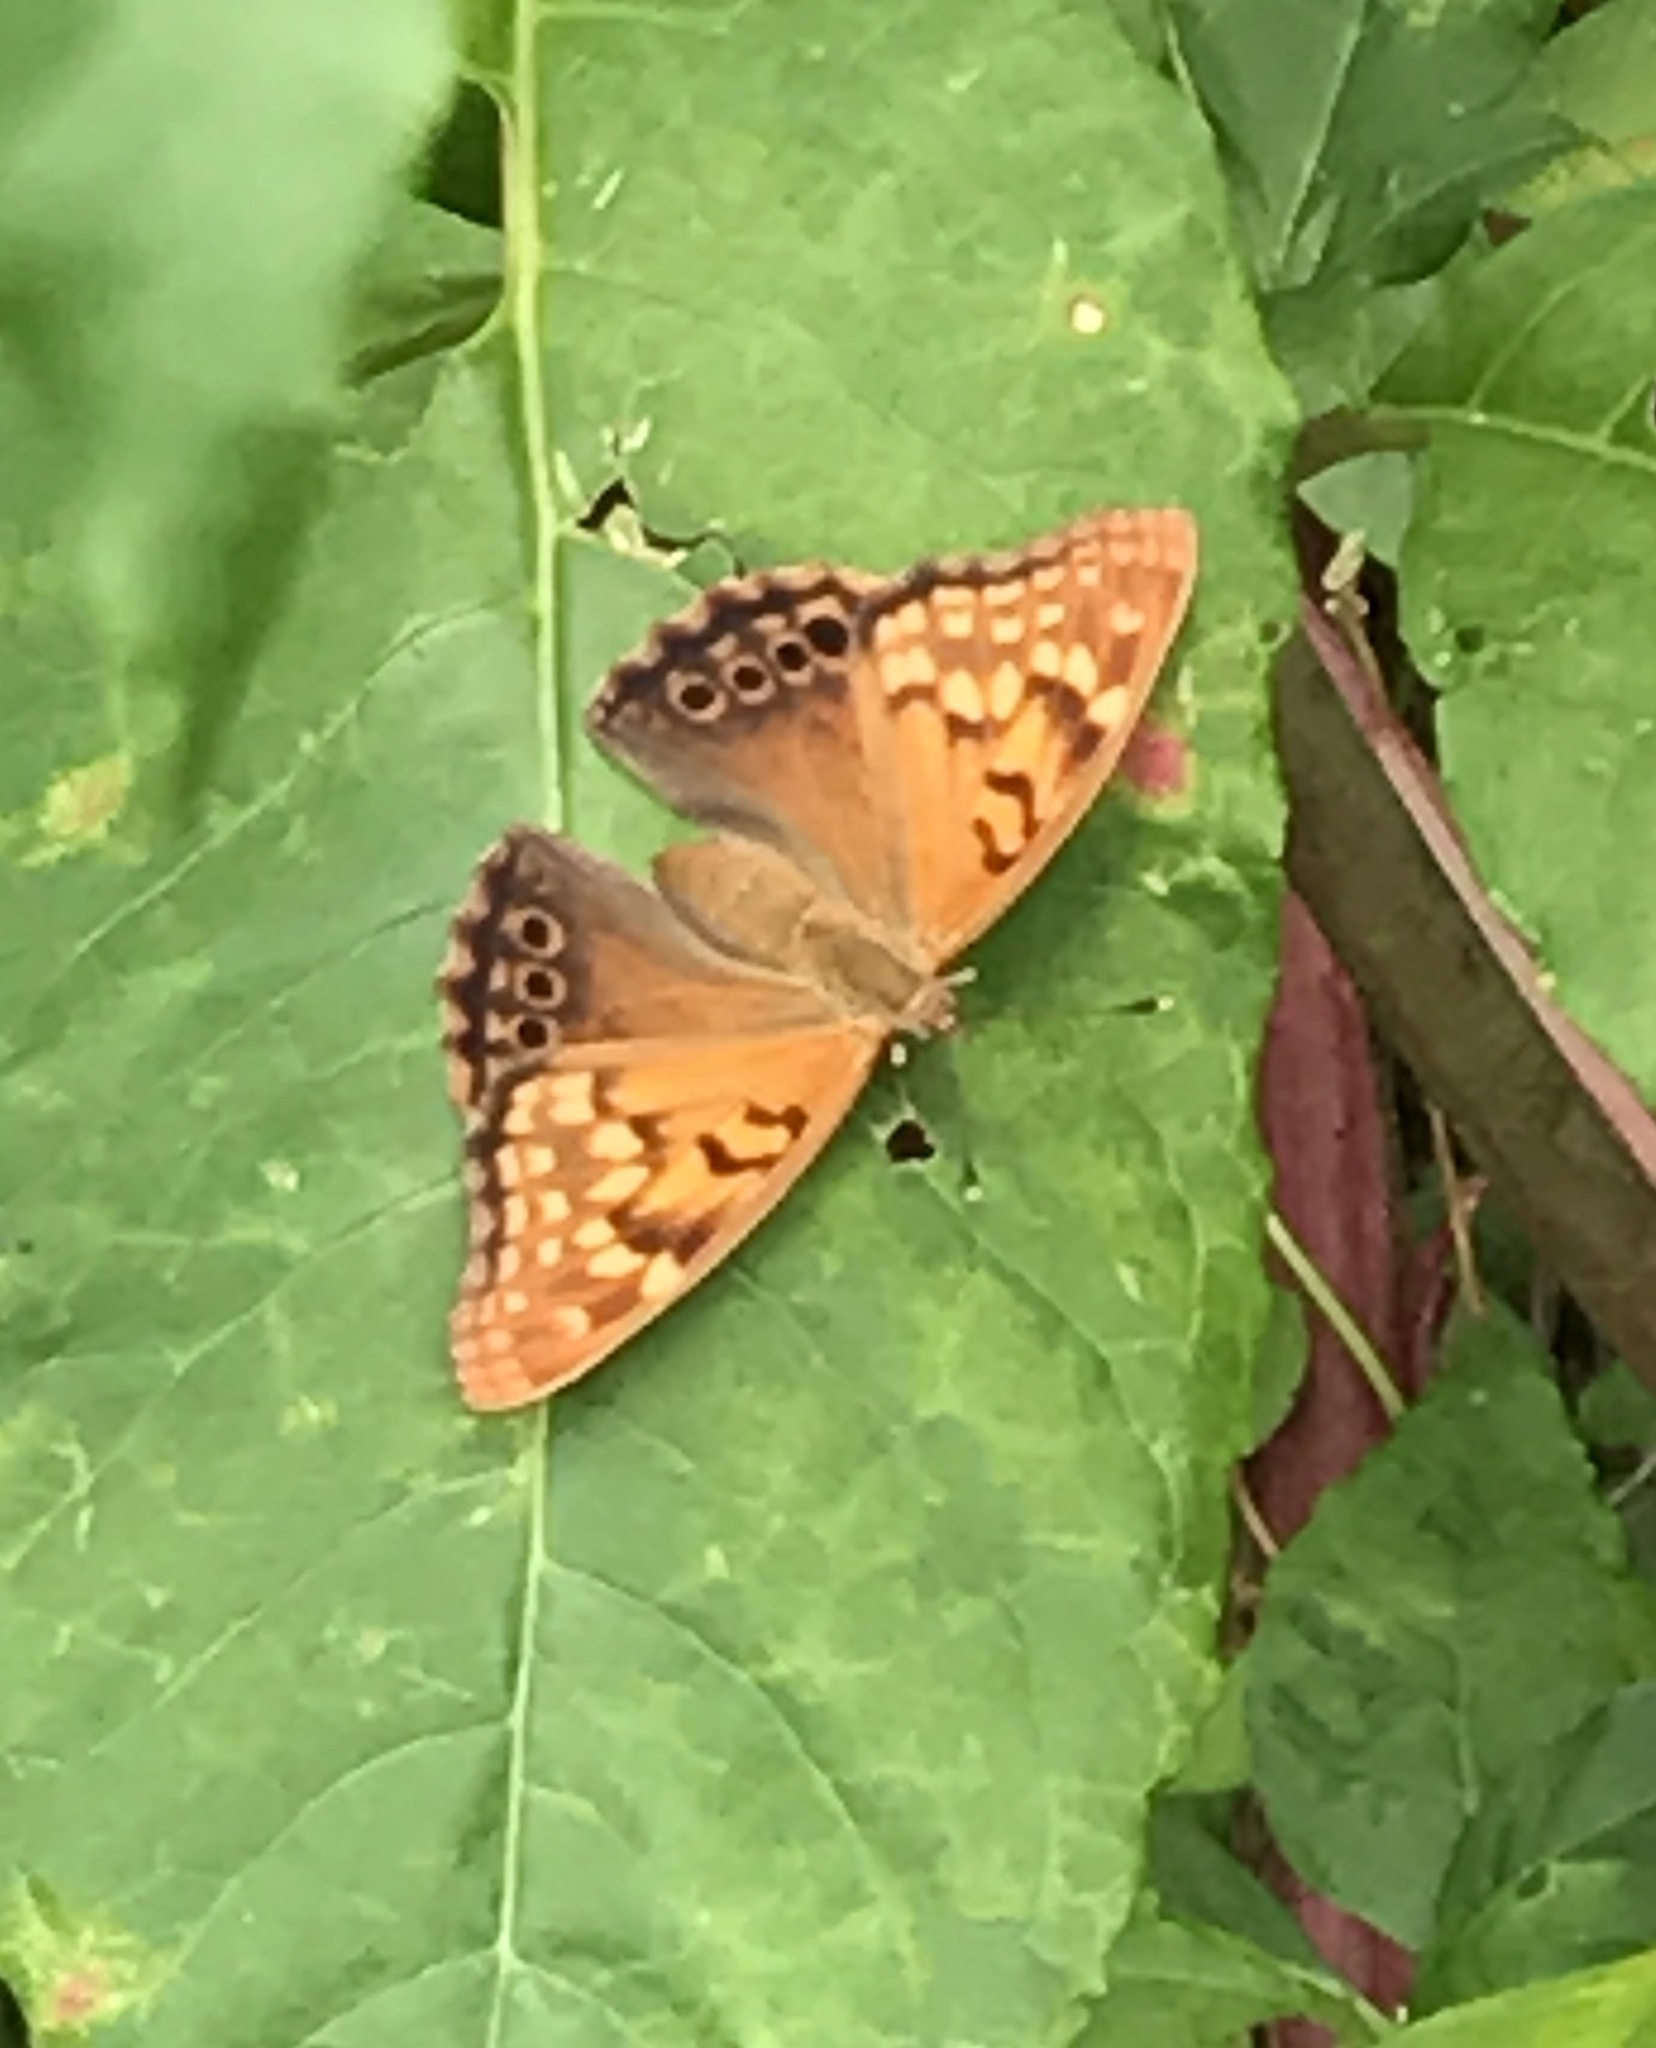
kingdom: Animalia
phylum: Arthropoda
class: Insecta
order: Lepidoptera
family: Nymphalidae
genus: Asterocampa
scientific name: Asterocampa clyton
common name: Tawny emperor
